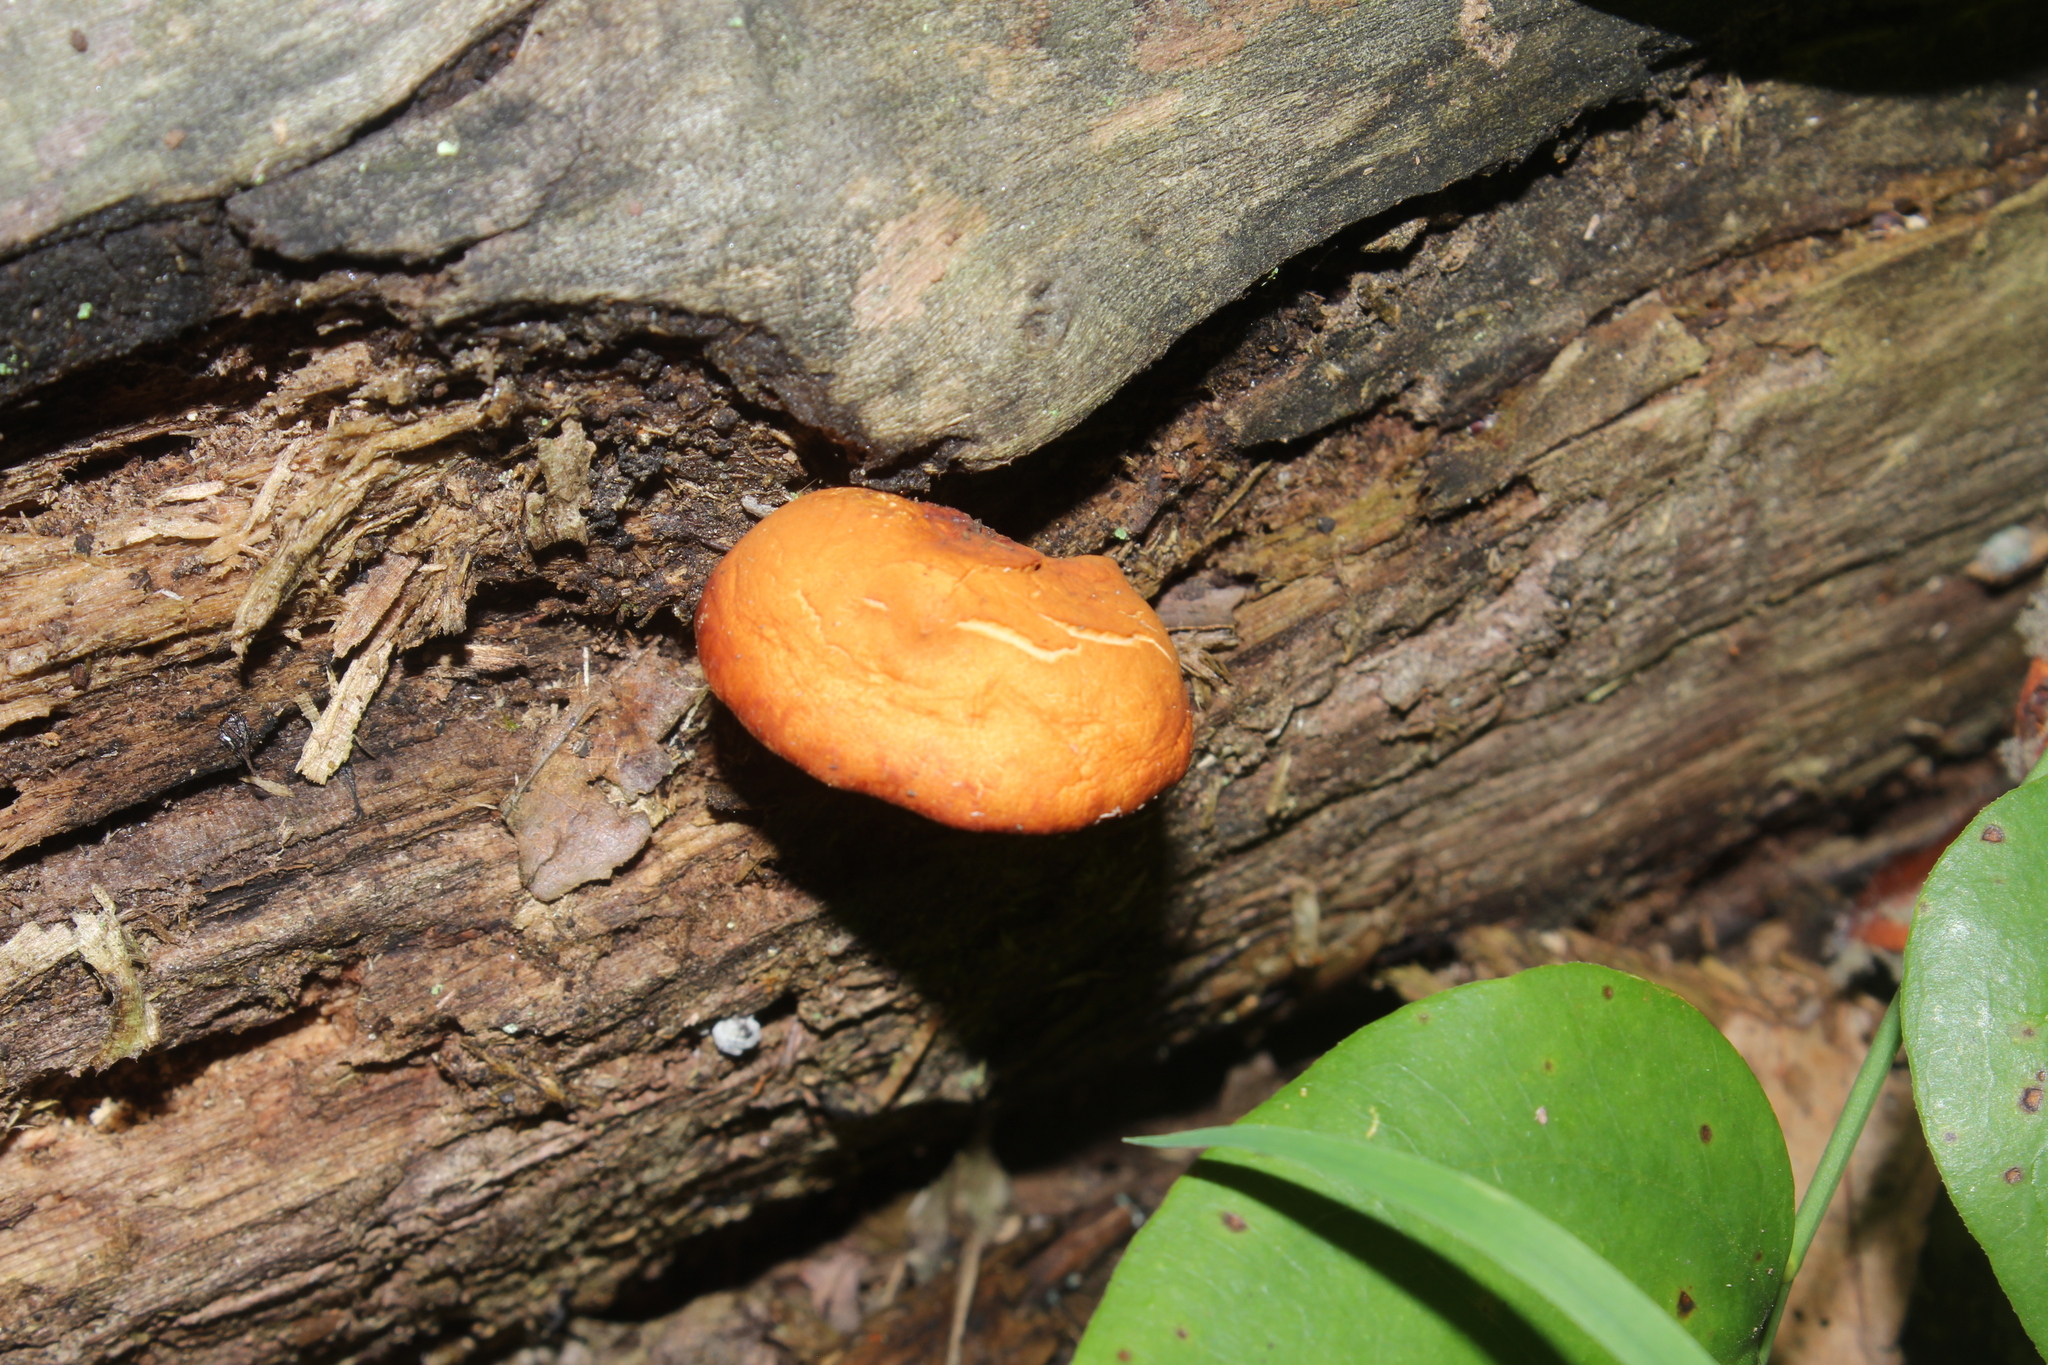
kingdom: Fungi
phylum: Basidiomycota
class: Agaricomycetes
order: Agaricales
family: Hymenogastraceae
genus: Gymnopilus
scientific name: Gymnopilus liquiritiae
